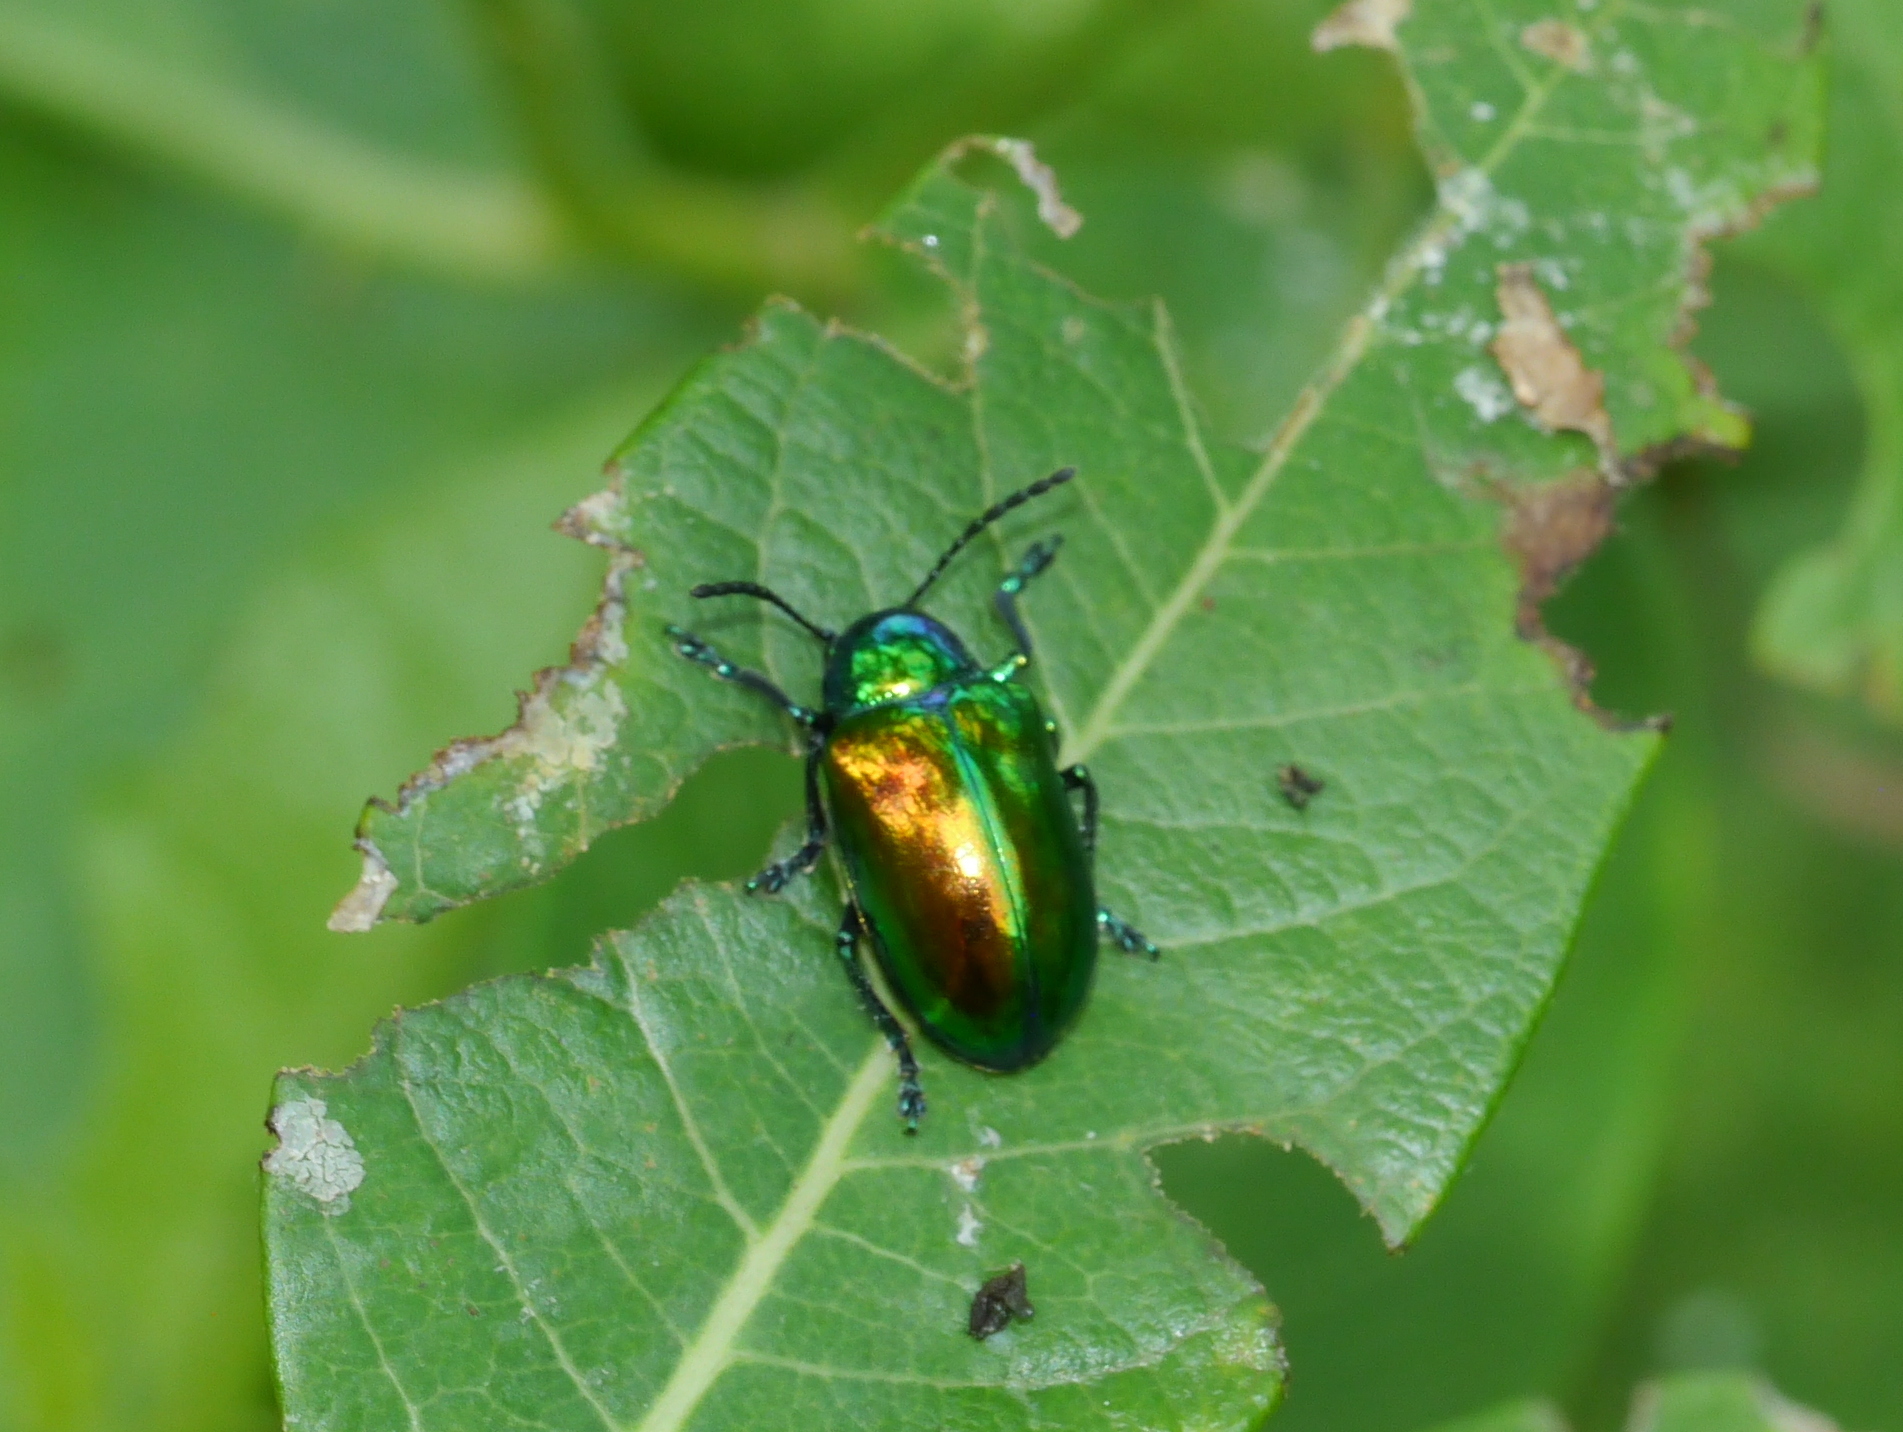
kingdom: Animalia
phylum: Arthropoda
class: Insecta
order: Coleoptera
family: Chrysomelidae
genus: Chrysochus
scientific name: Chrysochus auratus
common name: Dogbane leaf beetle
